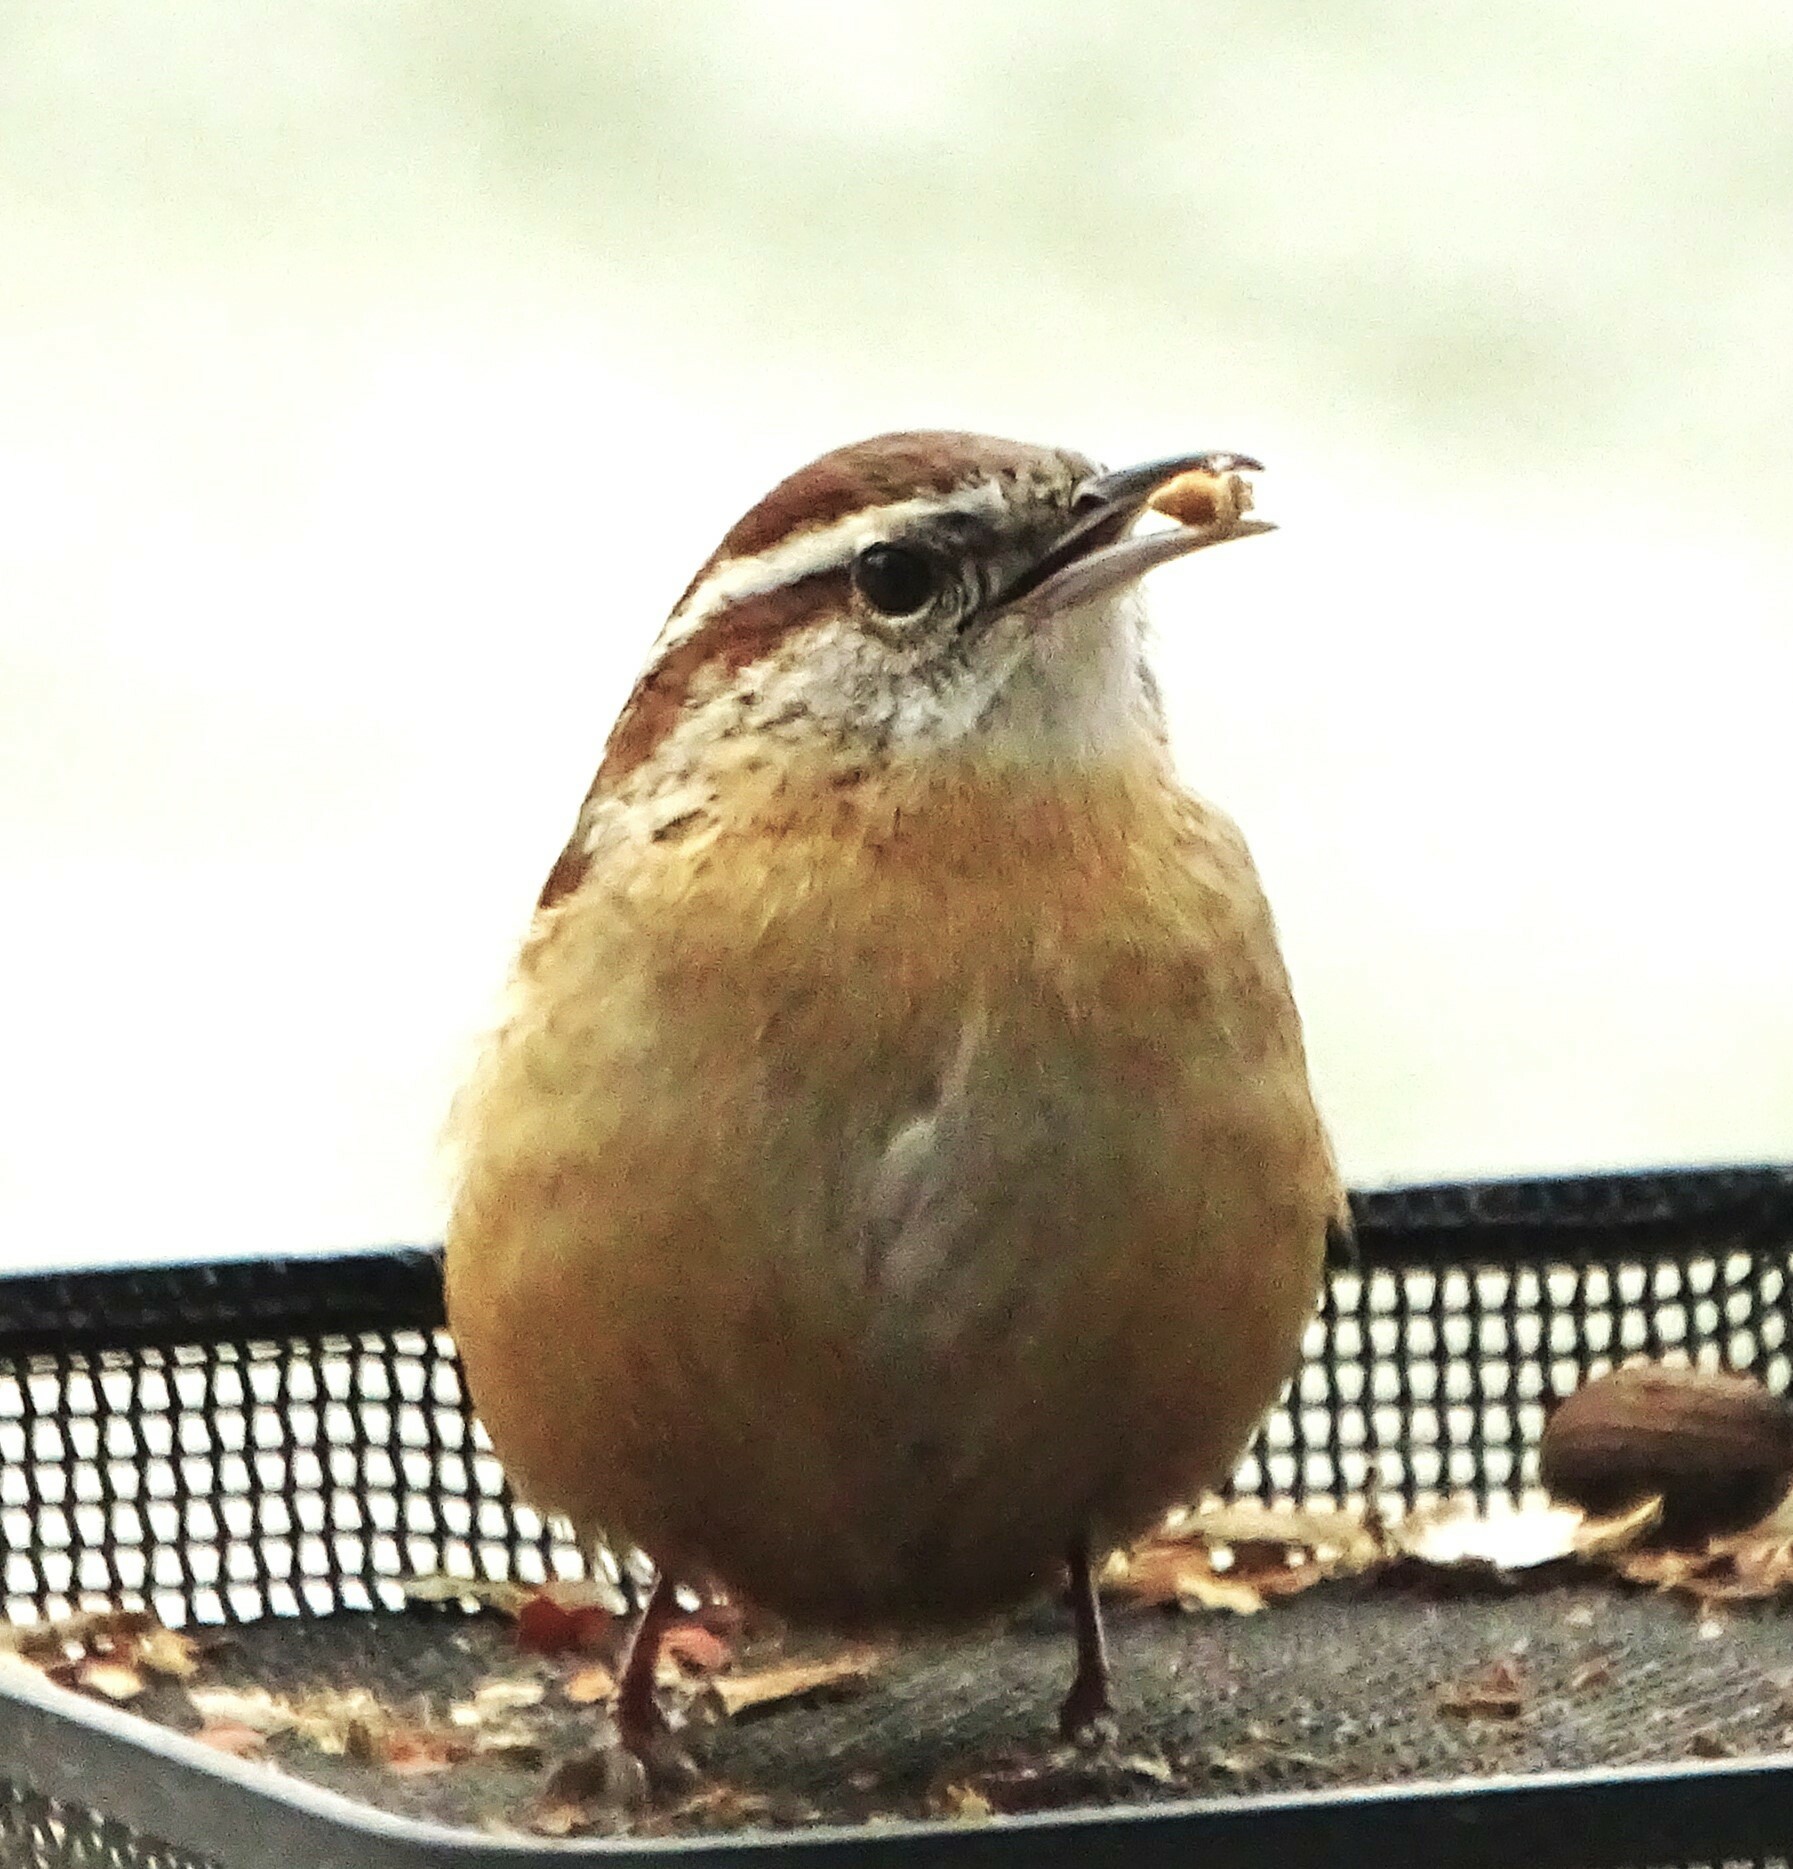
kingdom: Animalia
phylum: Chordata
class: Aves
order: Passeriformes
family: Troglodytidae
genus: Thryothorus
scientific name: Thryothorus ludovicianus
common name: Carolina wren
